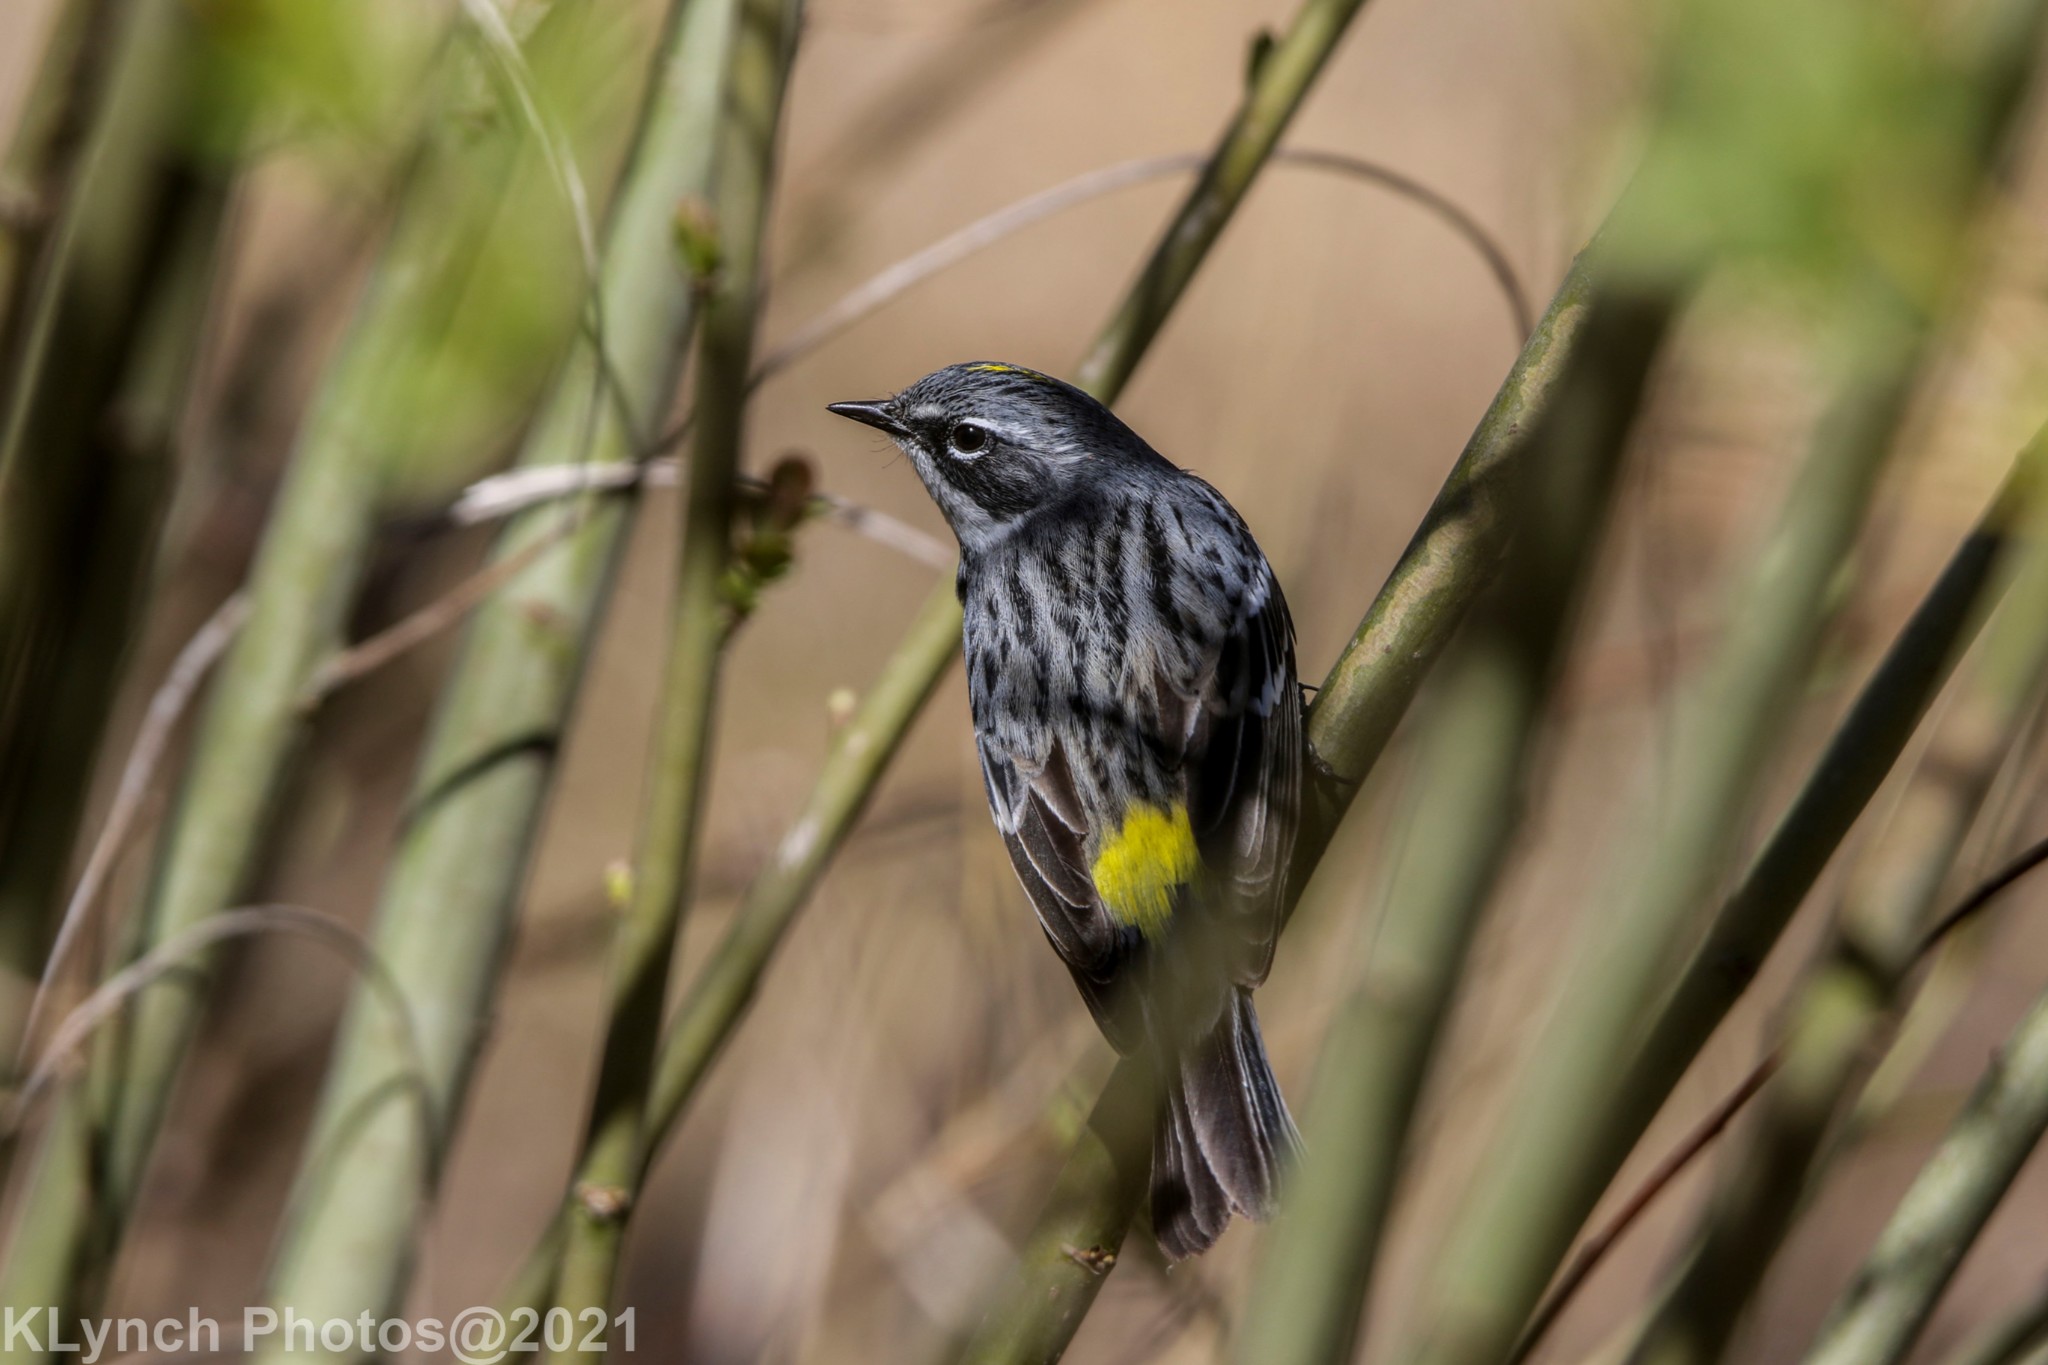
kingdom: Animalia
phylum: Chordata
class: Aves
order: Passeriformes
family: Parulidae
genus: Setophaga
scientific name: Setophaga coronata
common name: Myrtle warbler
